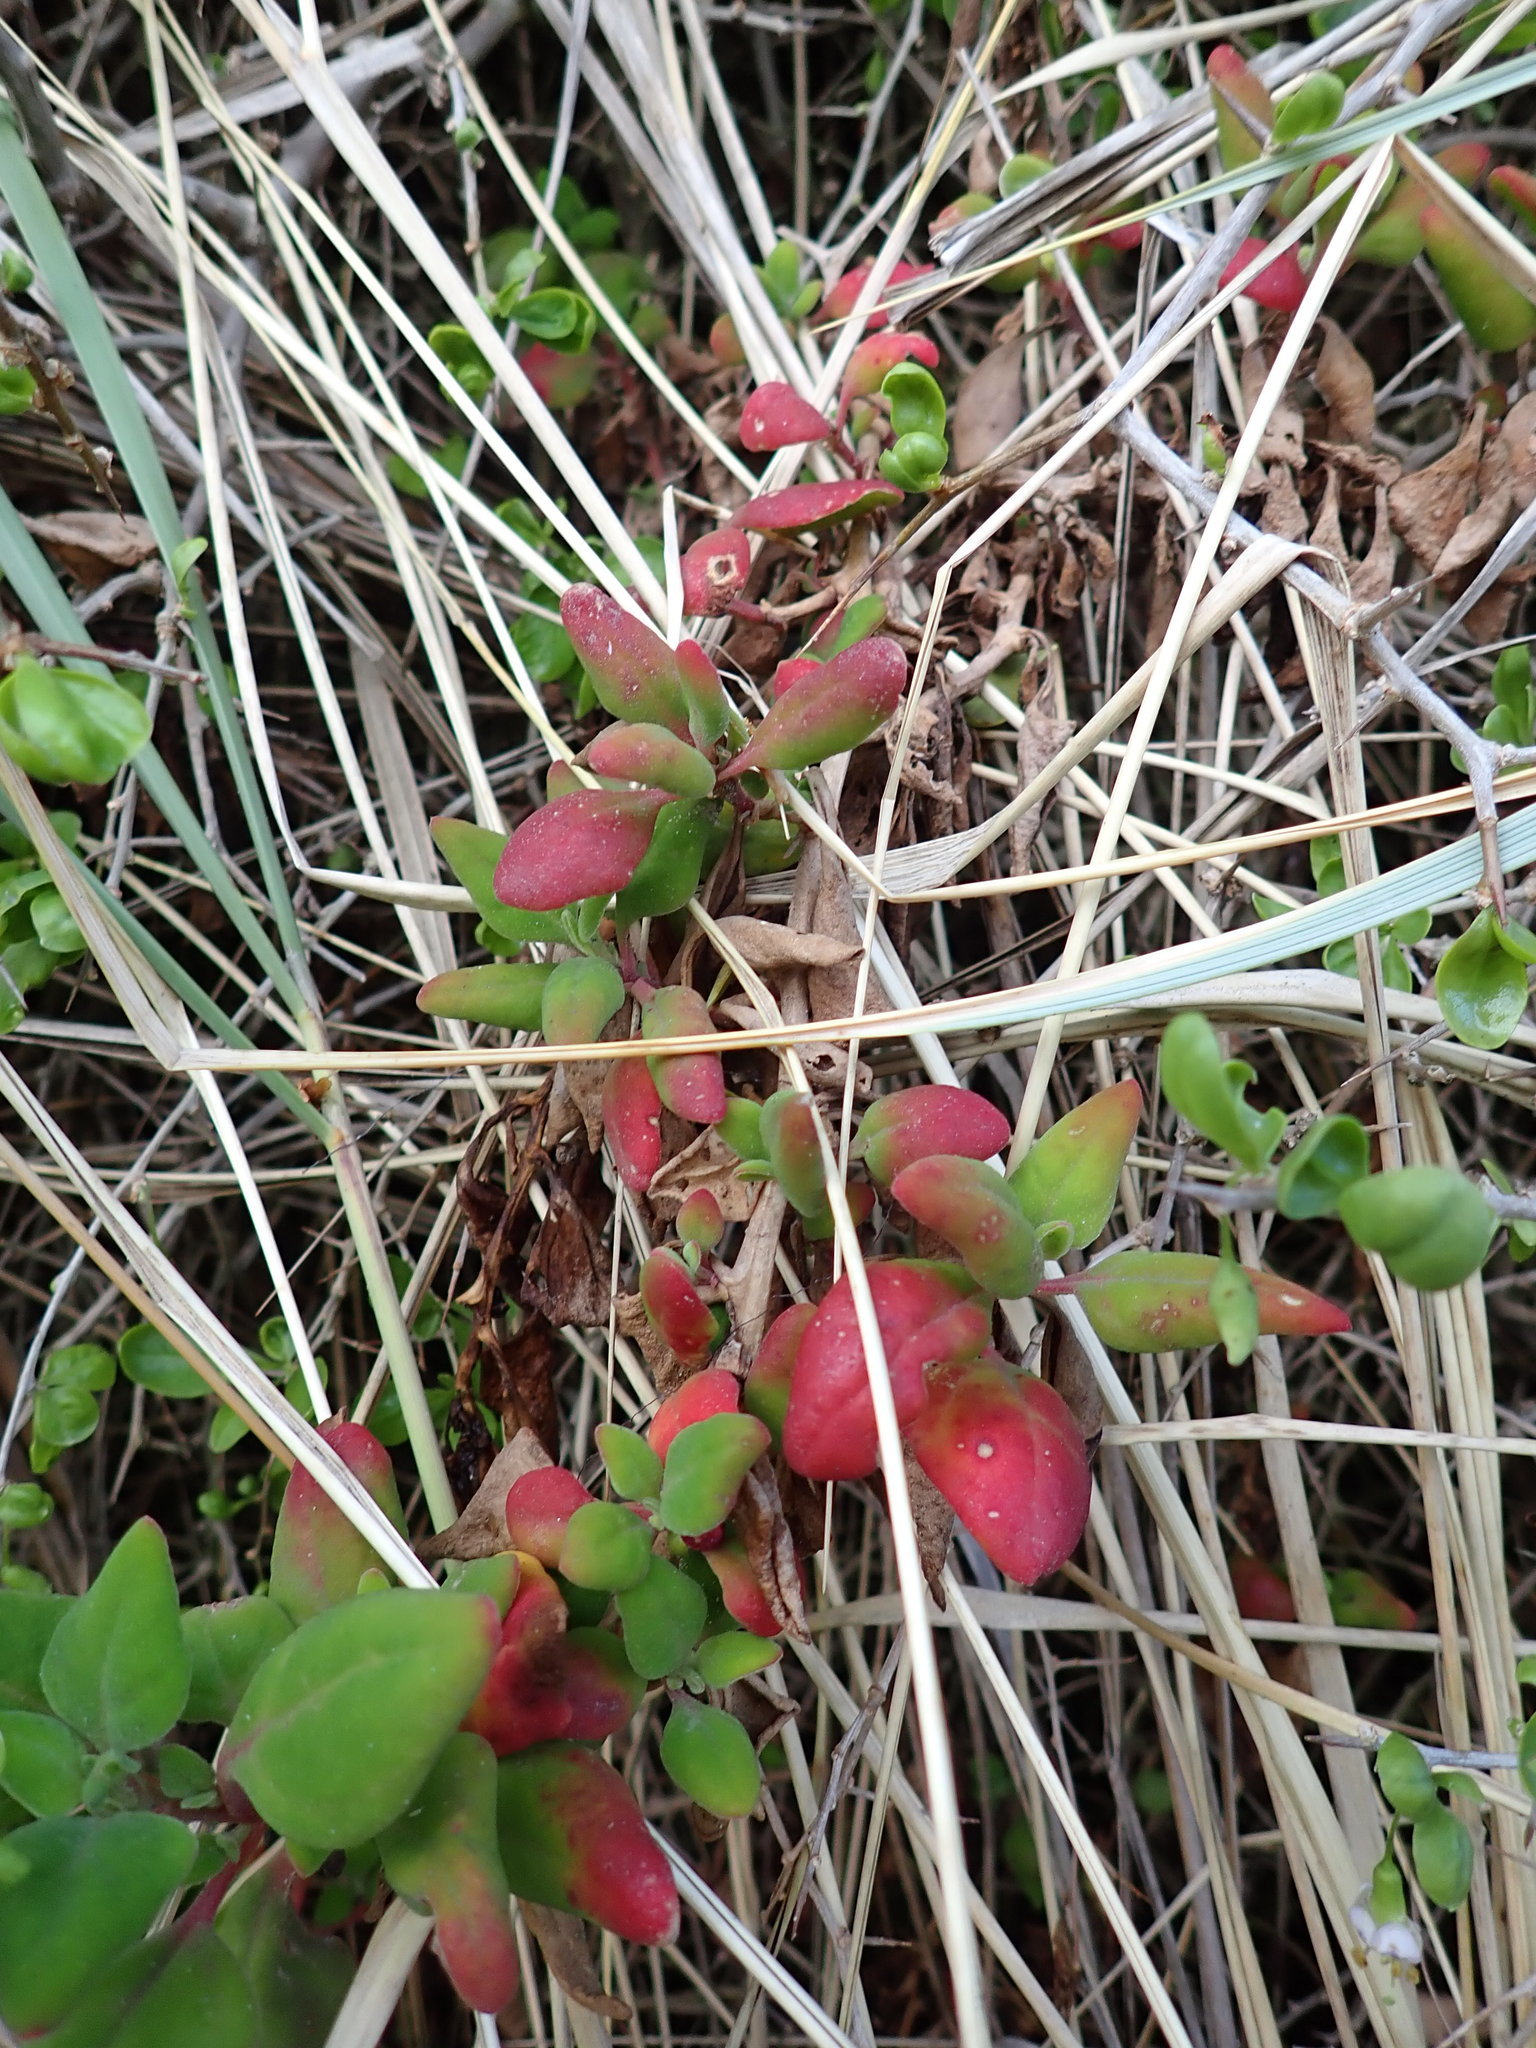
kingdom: Plantae
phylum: Tracheophyta
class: Magnoliopsida
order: Caryophyllales
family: Aizoaceae
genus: Tetragonia
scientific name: Tetragonia implexicoma
